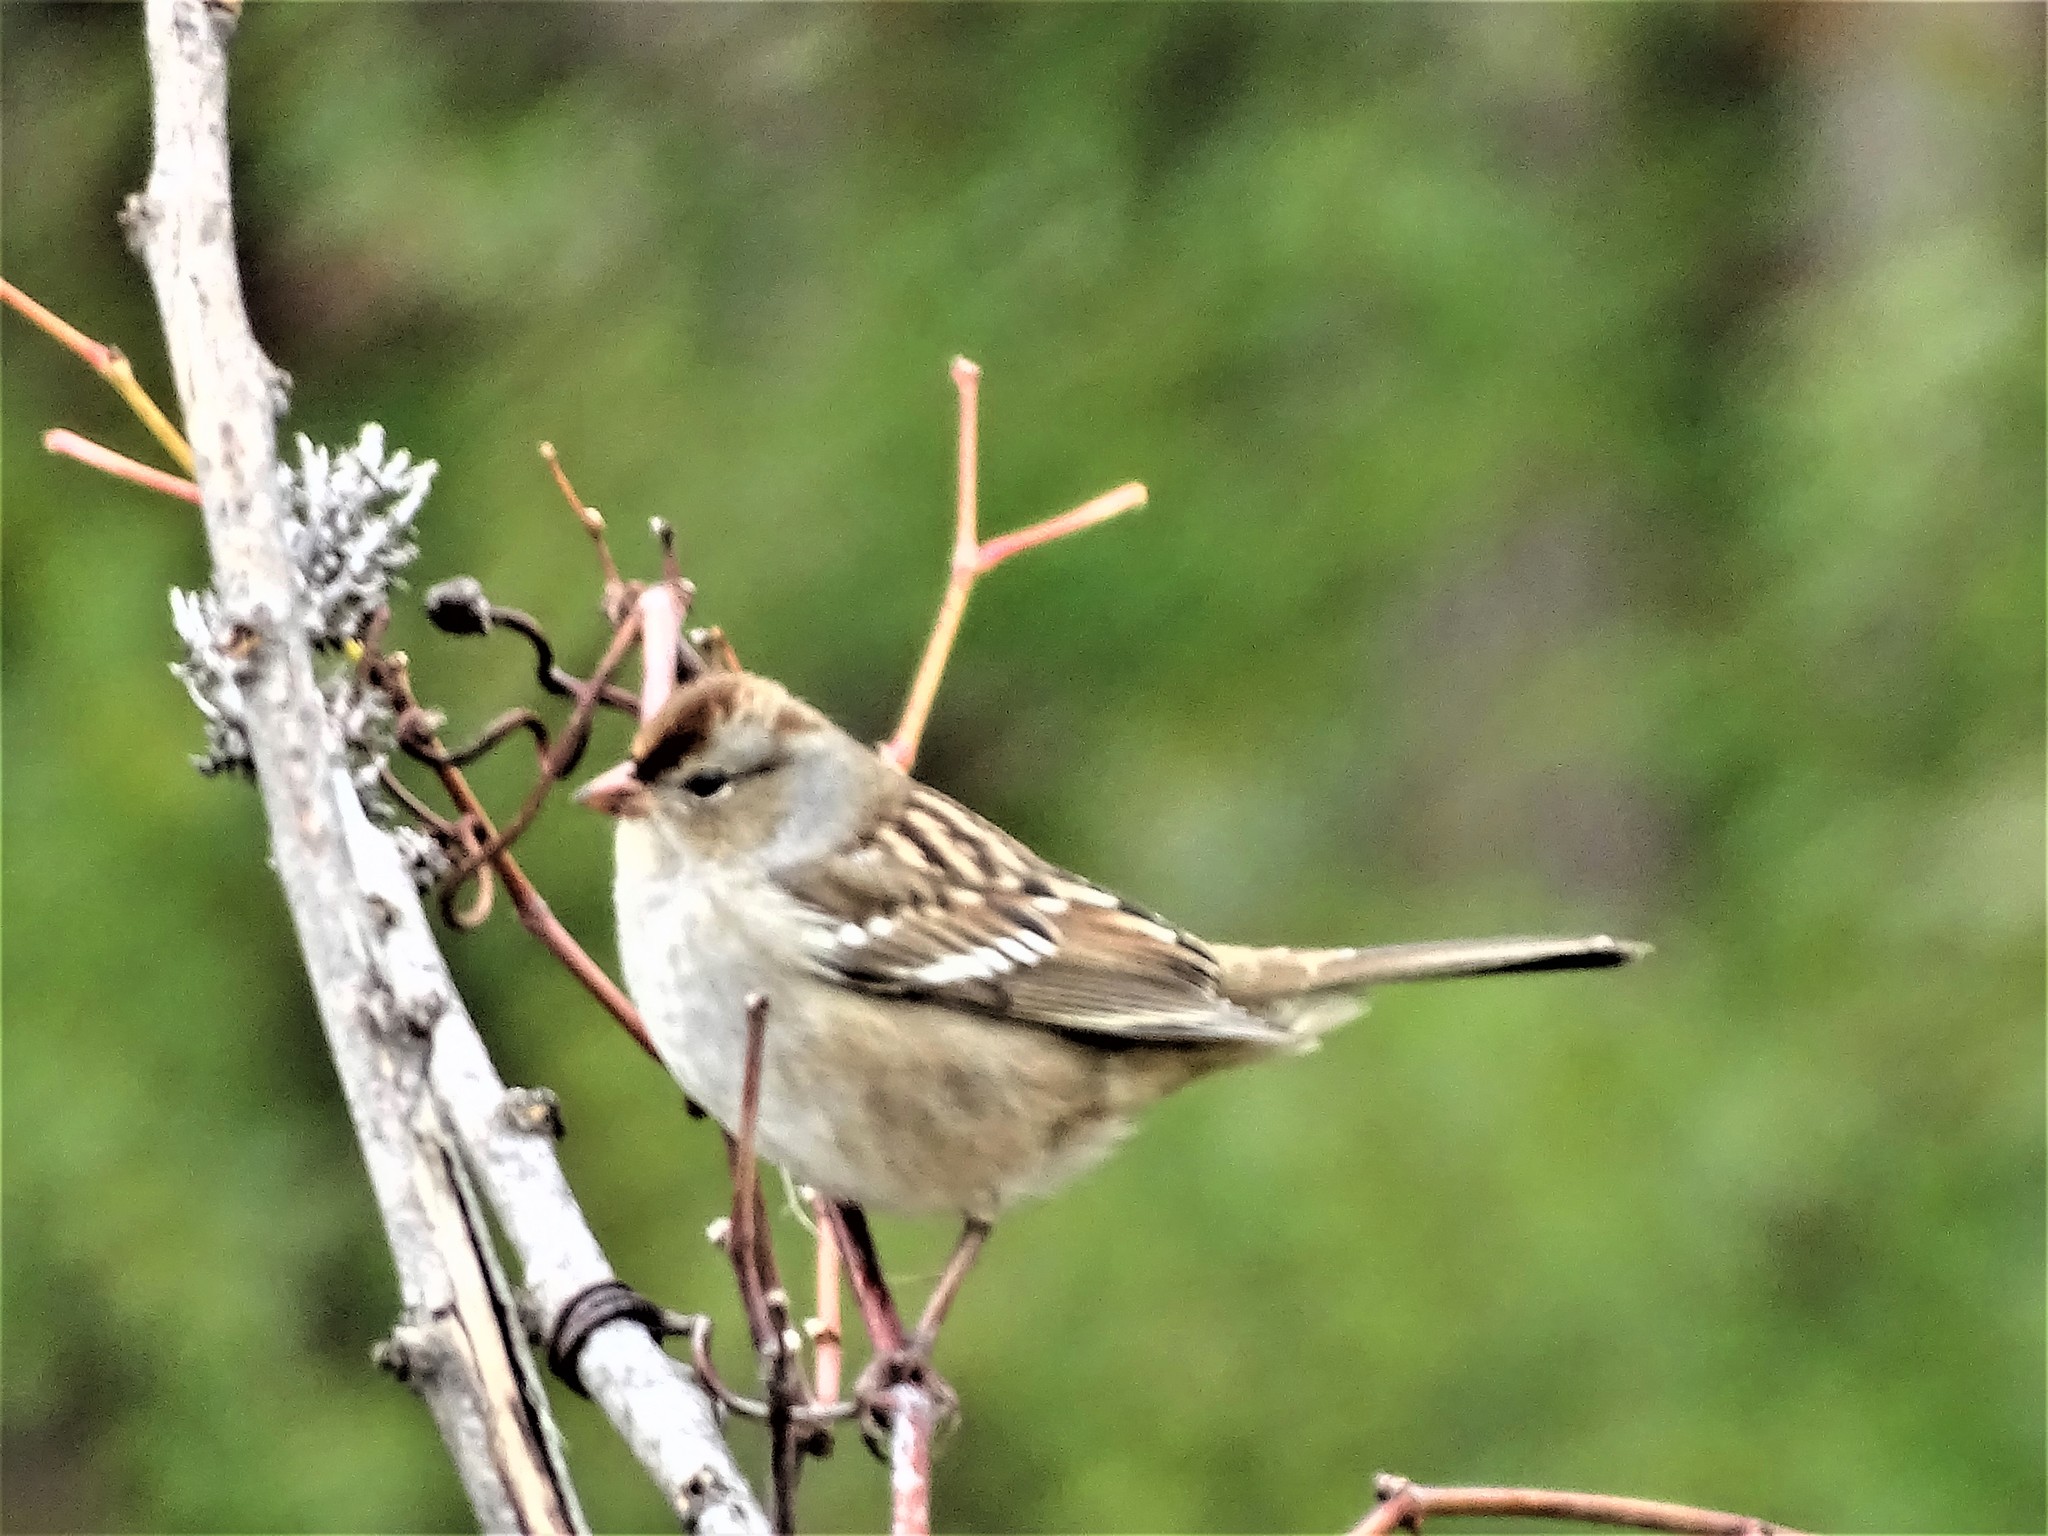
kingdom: Animalia
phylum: Chordata
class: Aves
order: Passeriformes
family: Passerellidae
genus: Zonotrichia
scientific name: Zonotrichia leucophrys
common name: White-crowned sparrow
